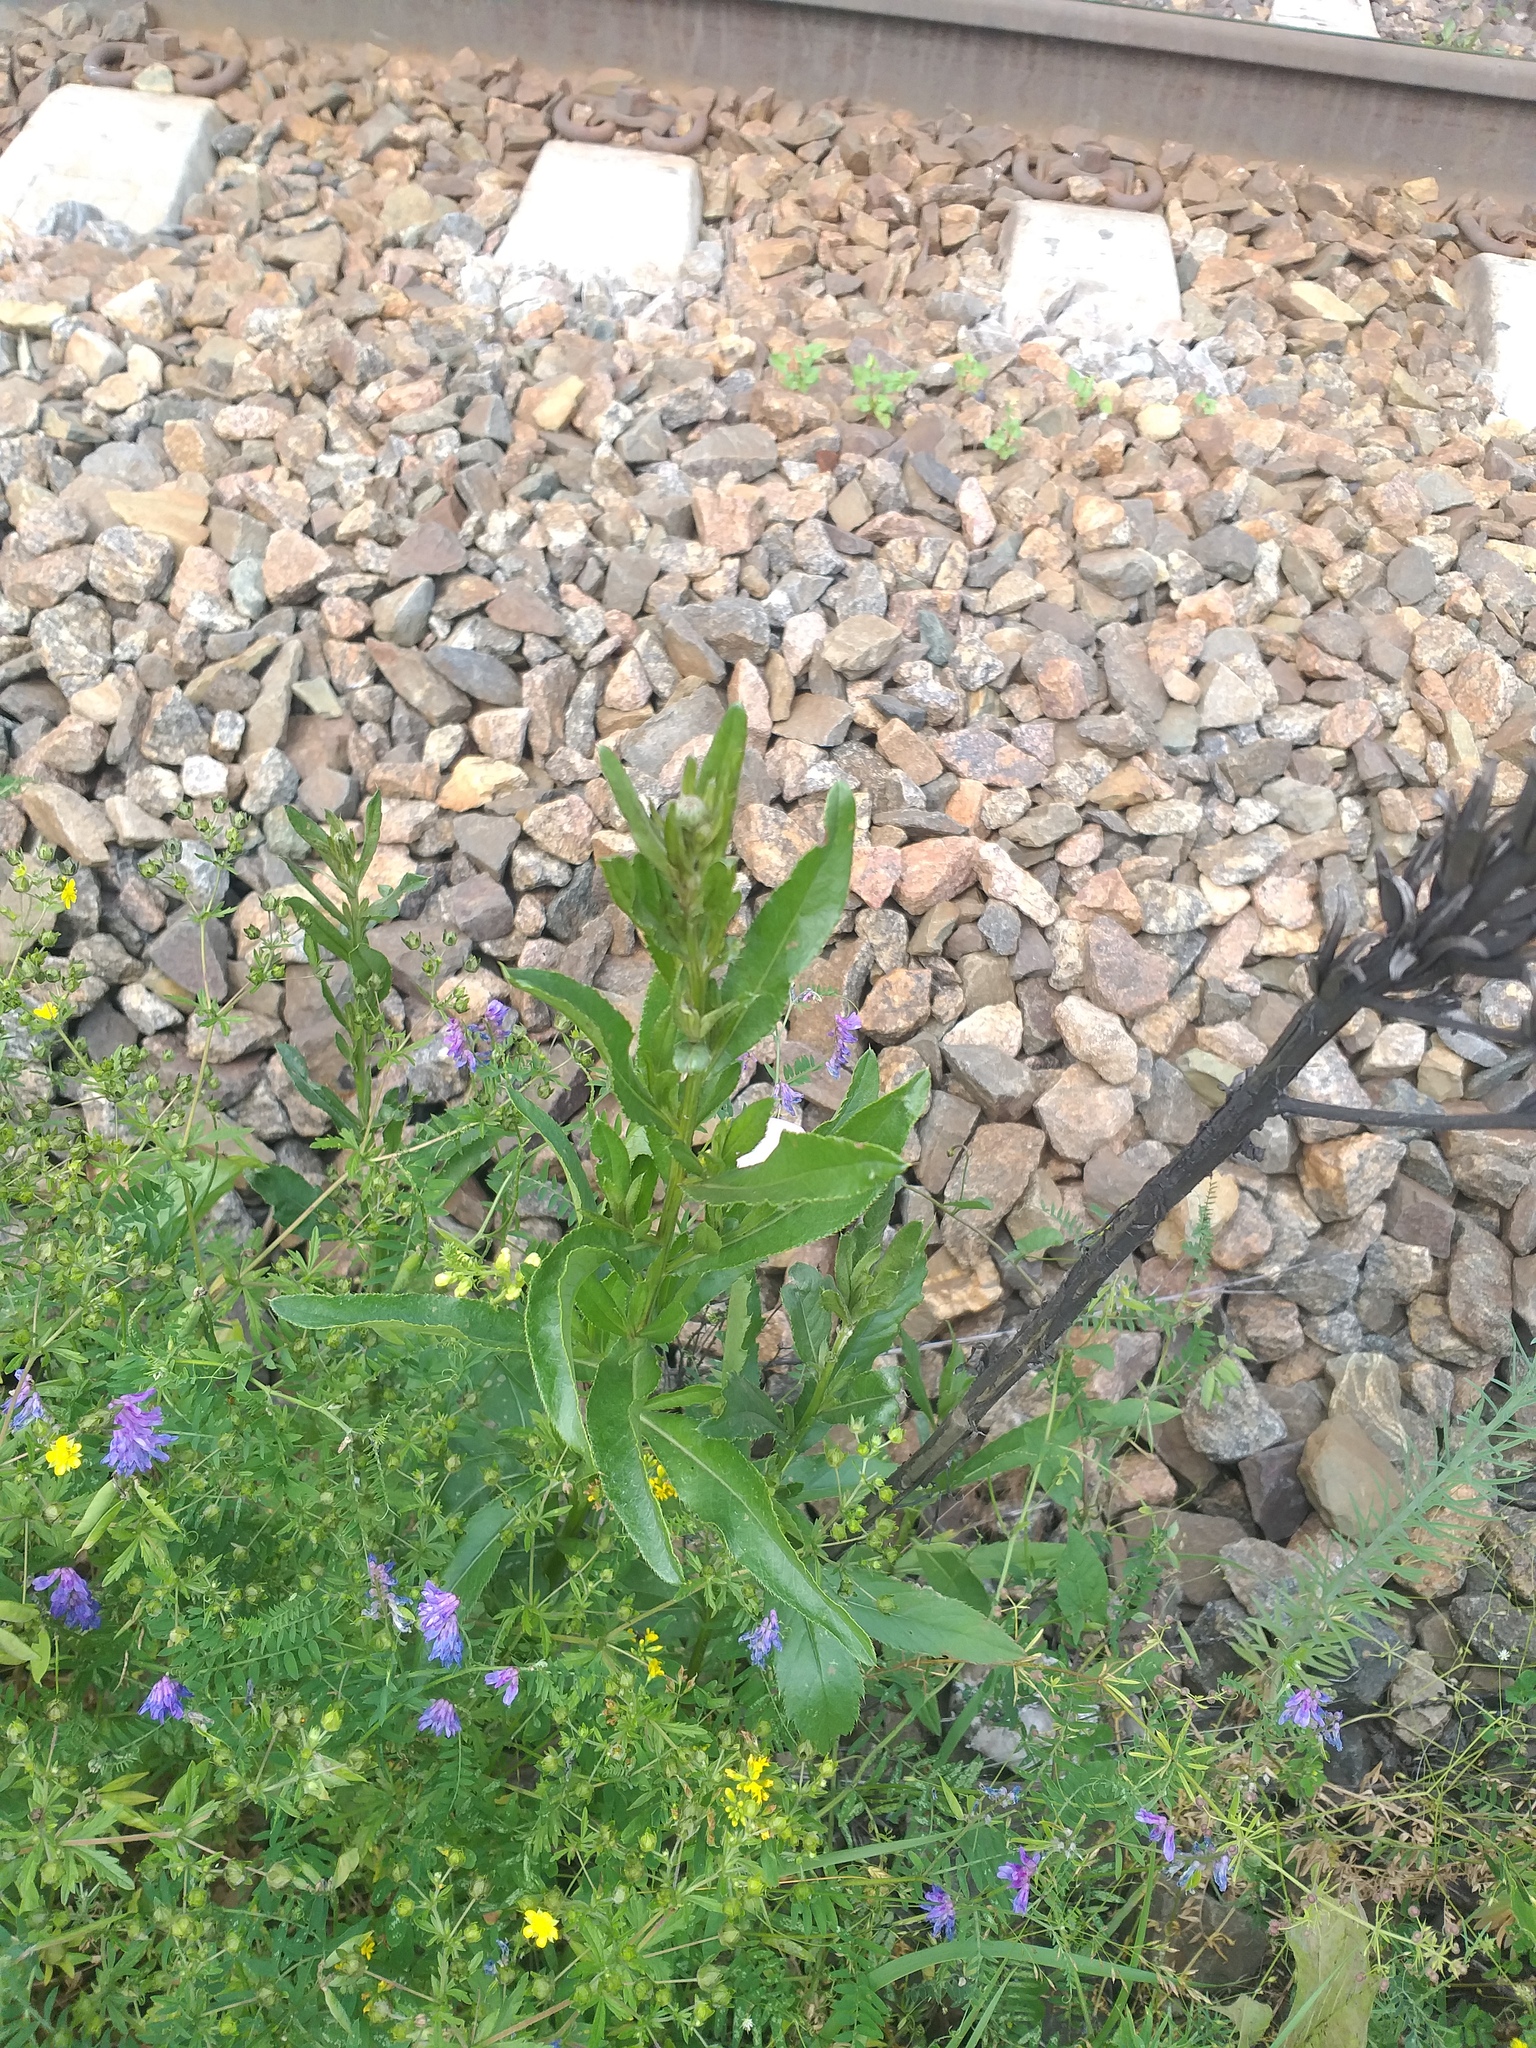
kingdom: Plantae
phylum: Tracheophyta
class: Magnoliopsida
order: Asterales
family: Asteraceae
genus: Cirsium
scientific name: Cirsium arvense
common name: Creeping thistle
